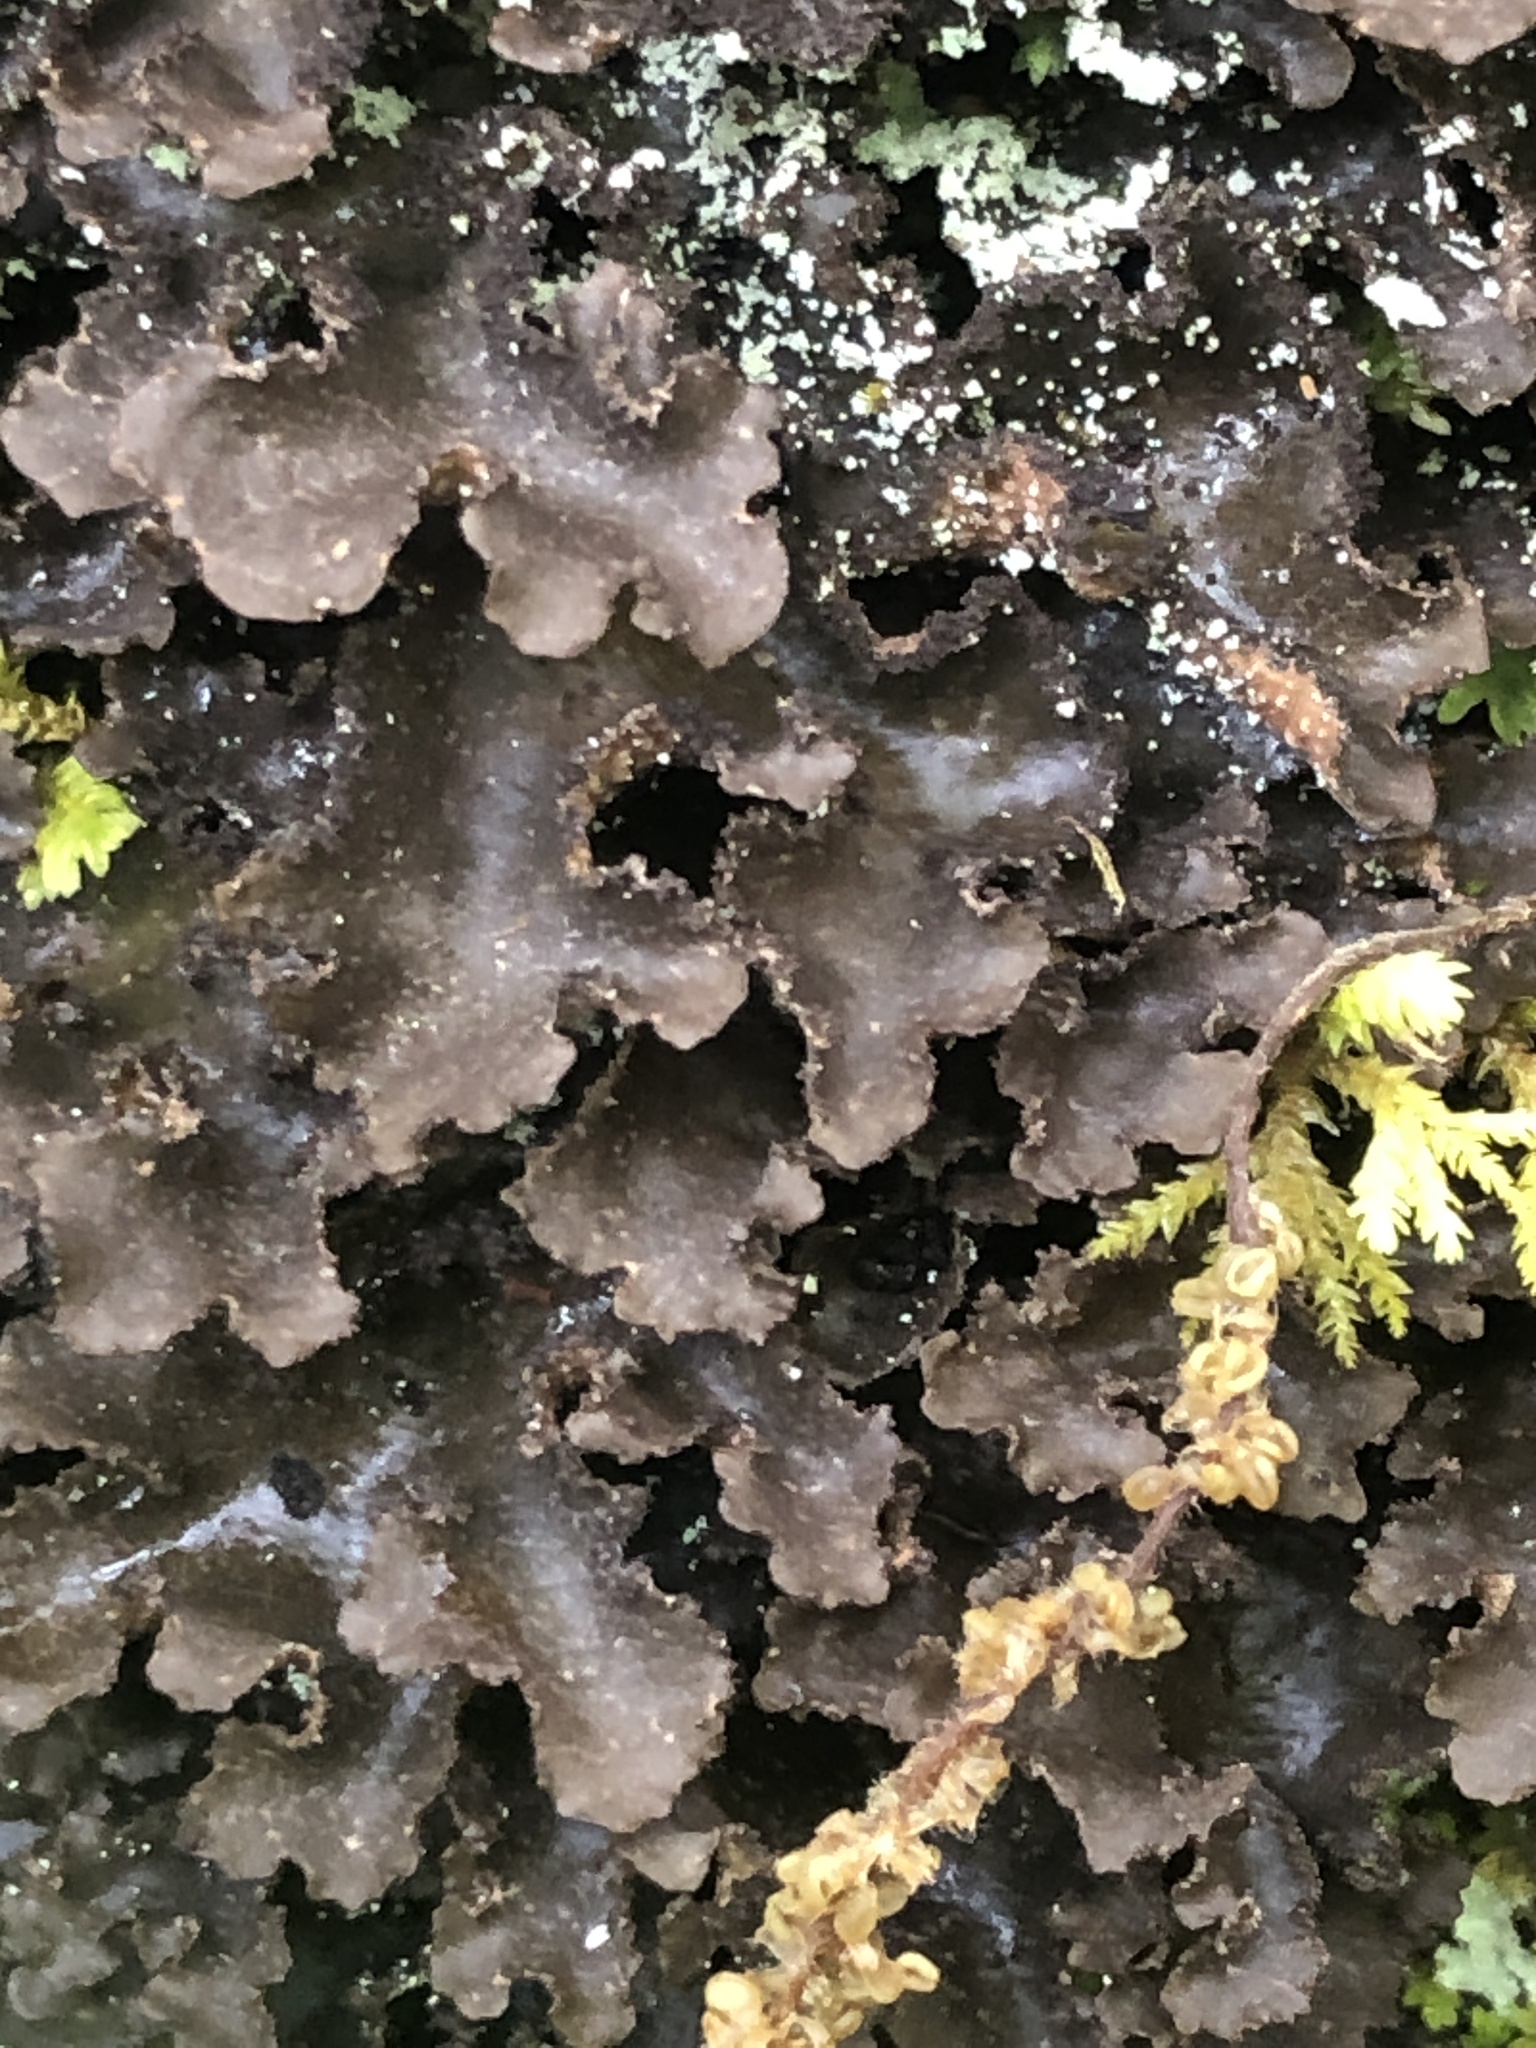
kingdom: Fungi
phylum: Ascomycota
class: Lecanoromycetes
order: Peltigerales
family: Lobariaceae
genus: Sticta
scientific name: Sticta beauvoisii
